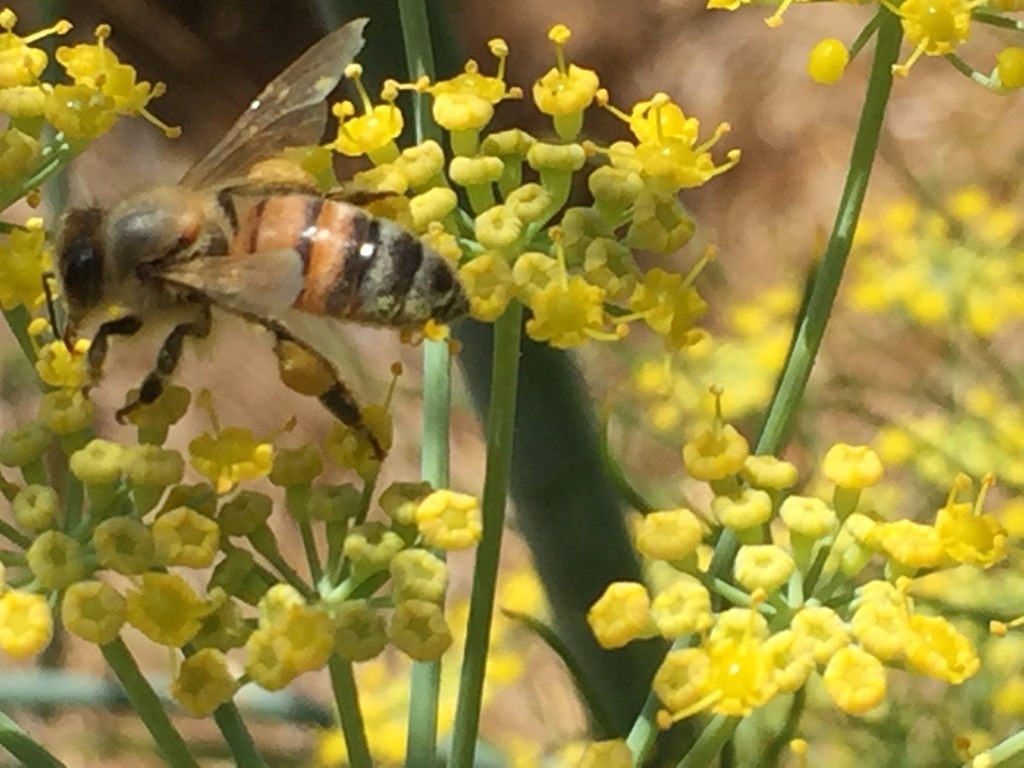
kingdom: Animalia
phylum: Arthropoda
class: Insecta
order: Hymenoptera
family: Apidae
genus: Apis
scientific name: Apis mellifera
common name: Honey bee
